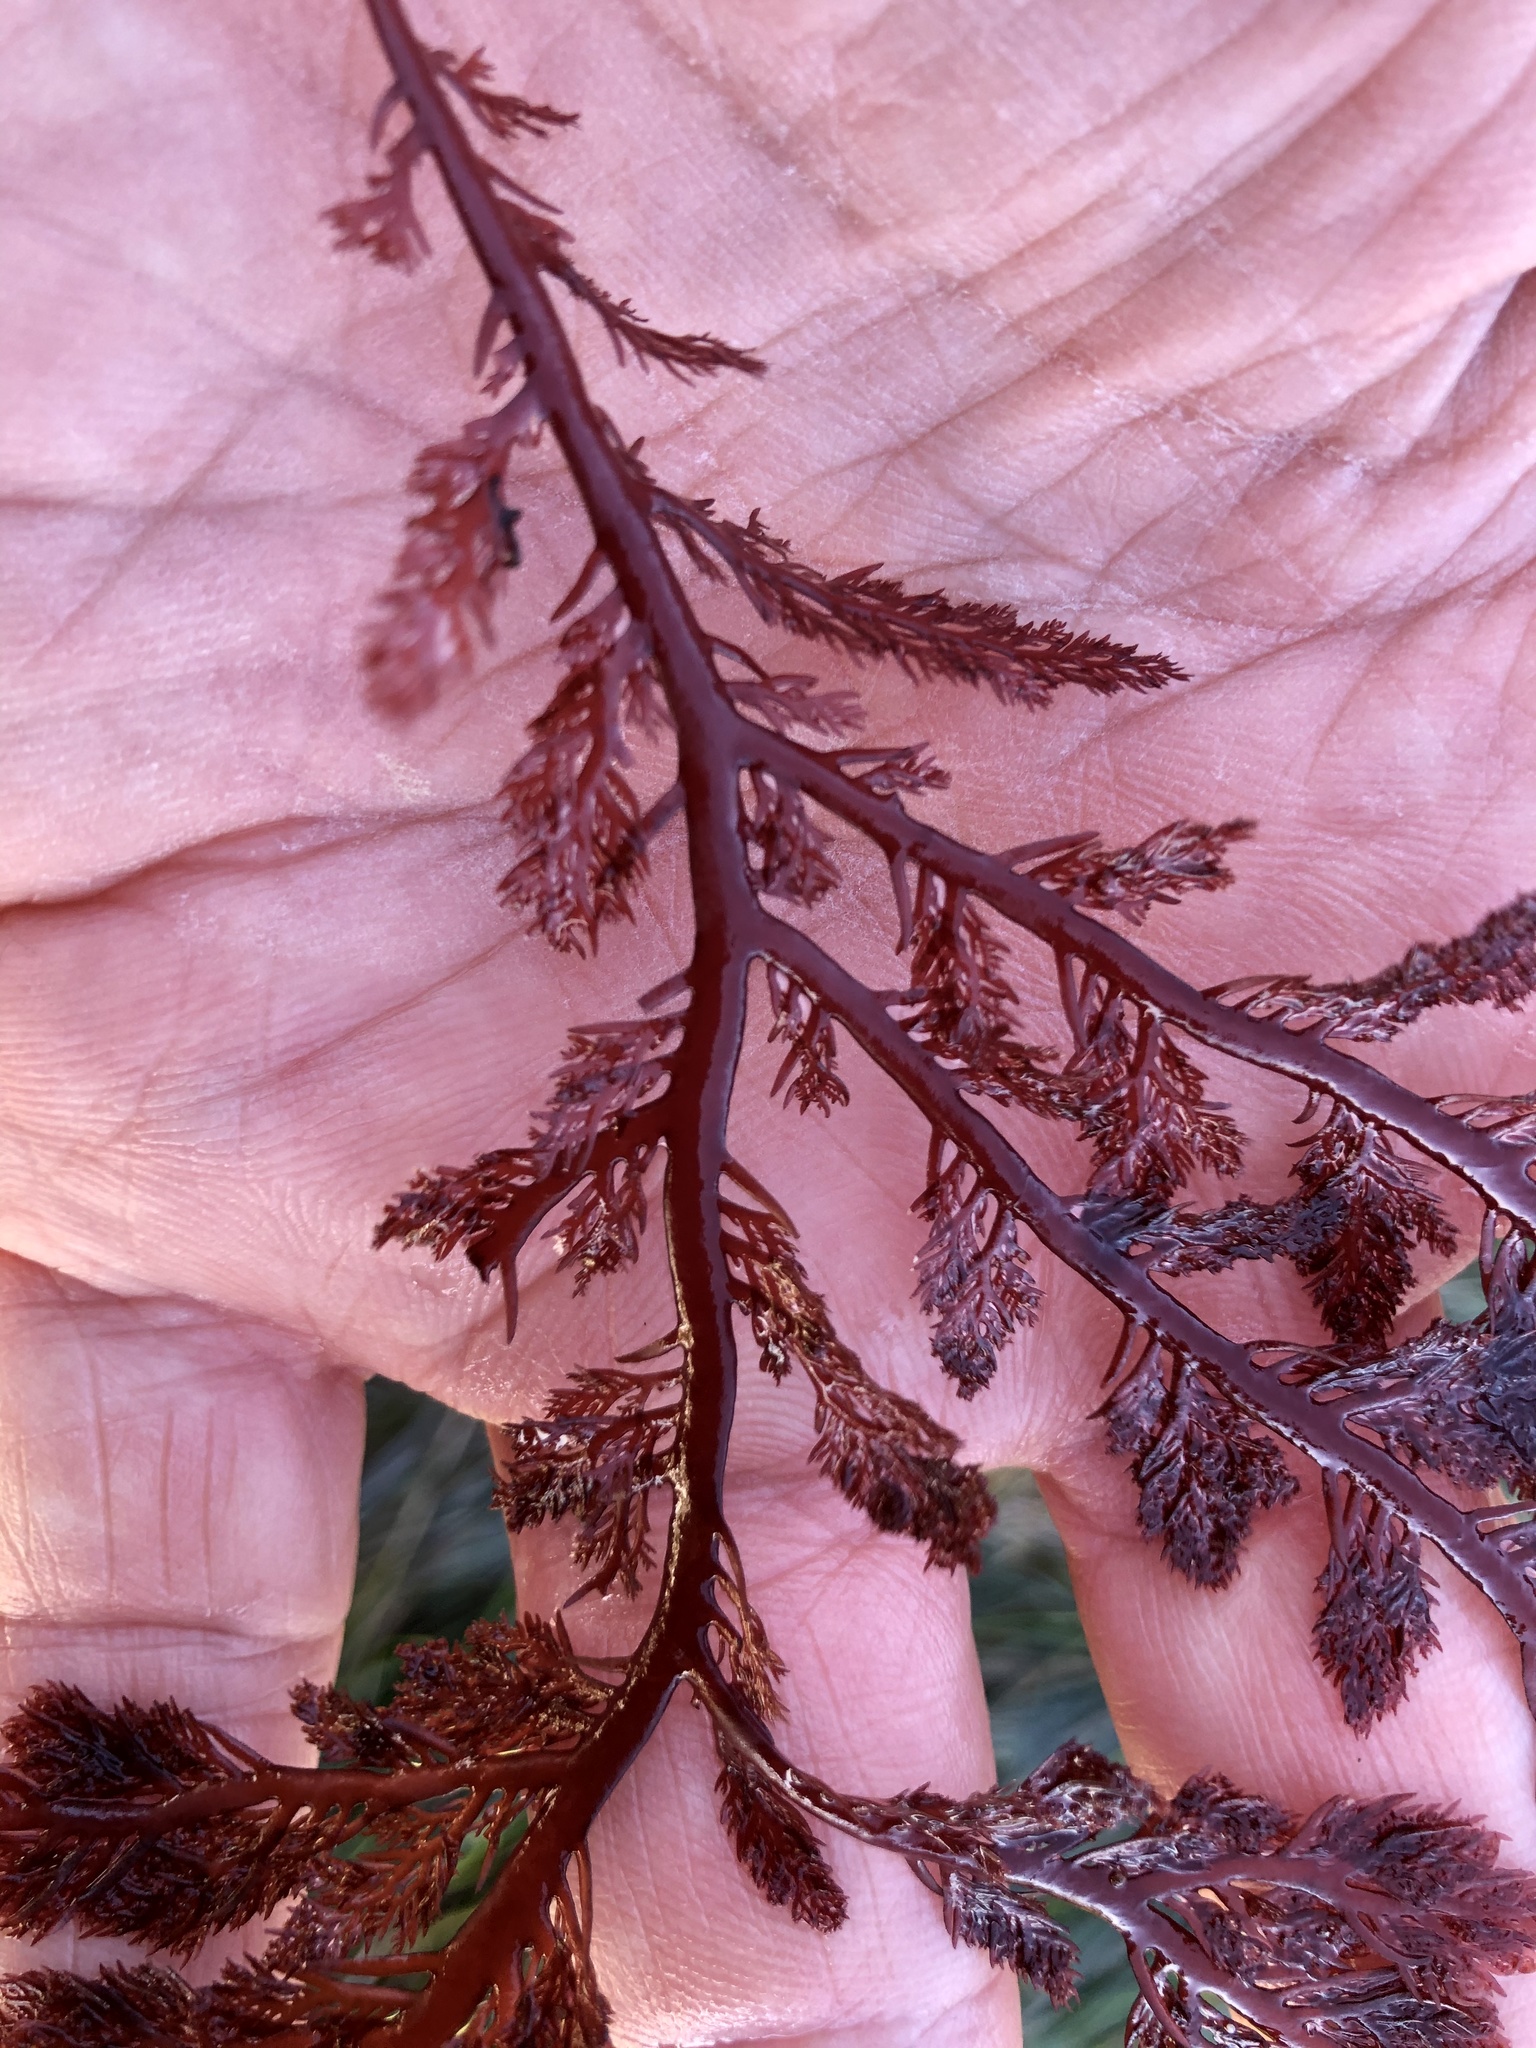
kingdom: Plantae
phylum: Rhodophyta
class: Florideophyceae
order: Plocamiales
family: Plocamiaceae
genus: Plocamium
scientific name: Plocamium cartilagineum
